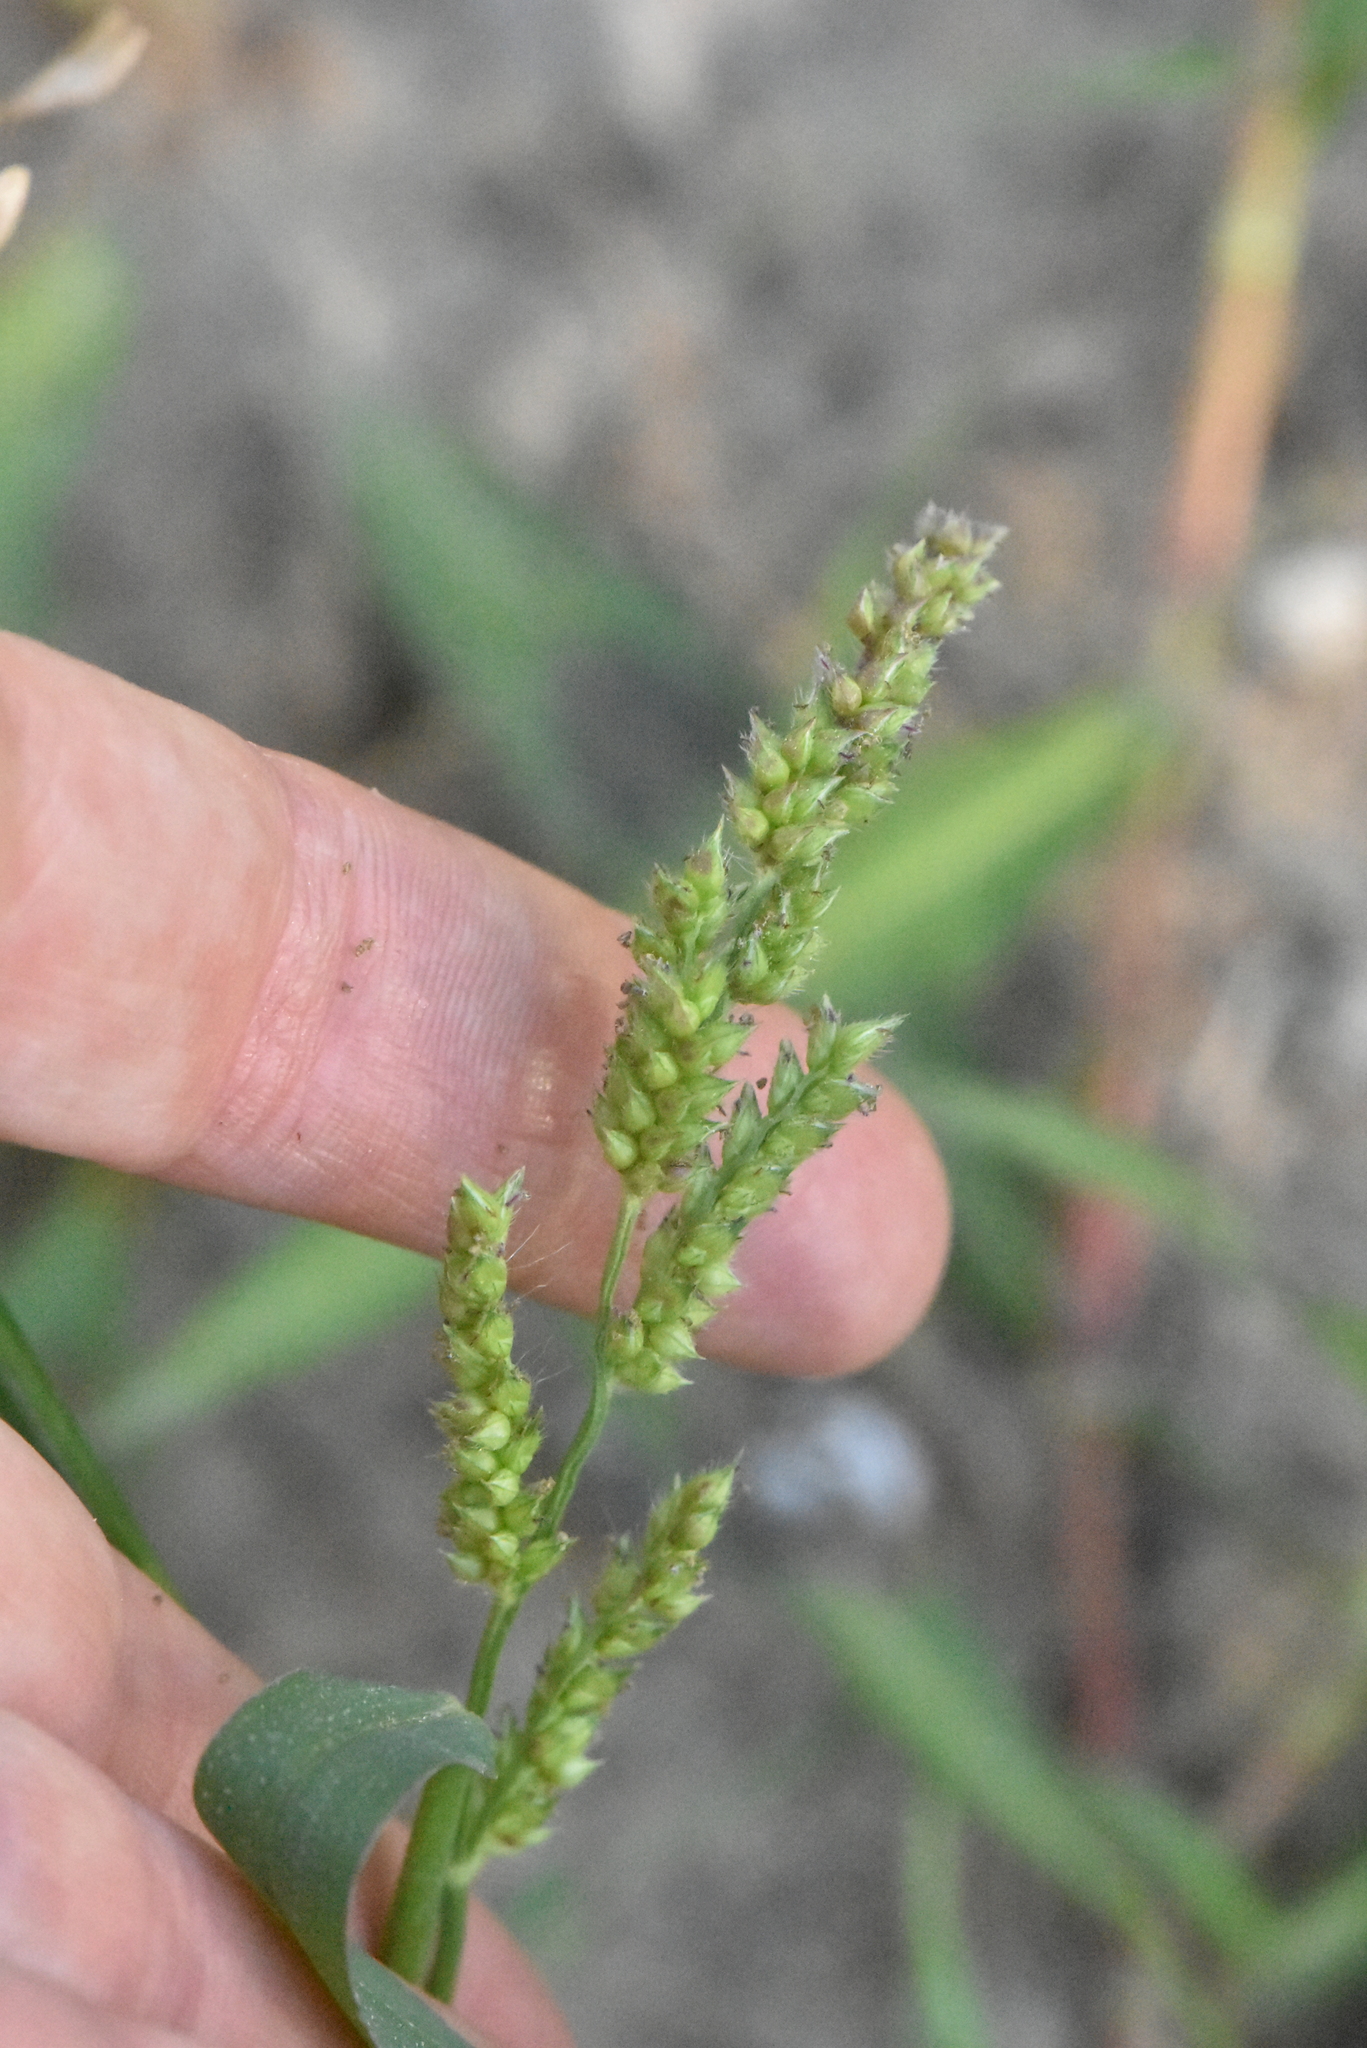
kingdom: Plantae
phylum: Tracheophyta
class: Liliopsida
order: Poales
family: Poaceae
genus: Echinochloa
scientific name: Echinochloa crus-galli
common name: Cockspur
